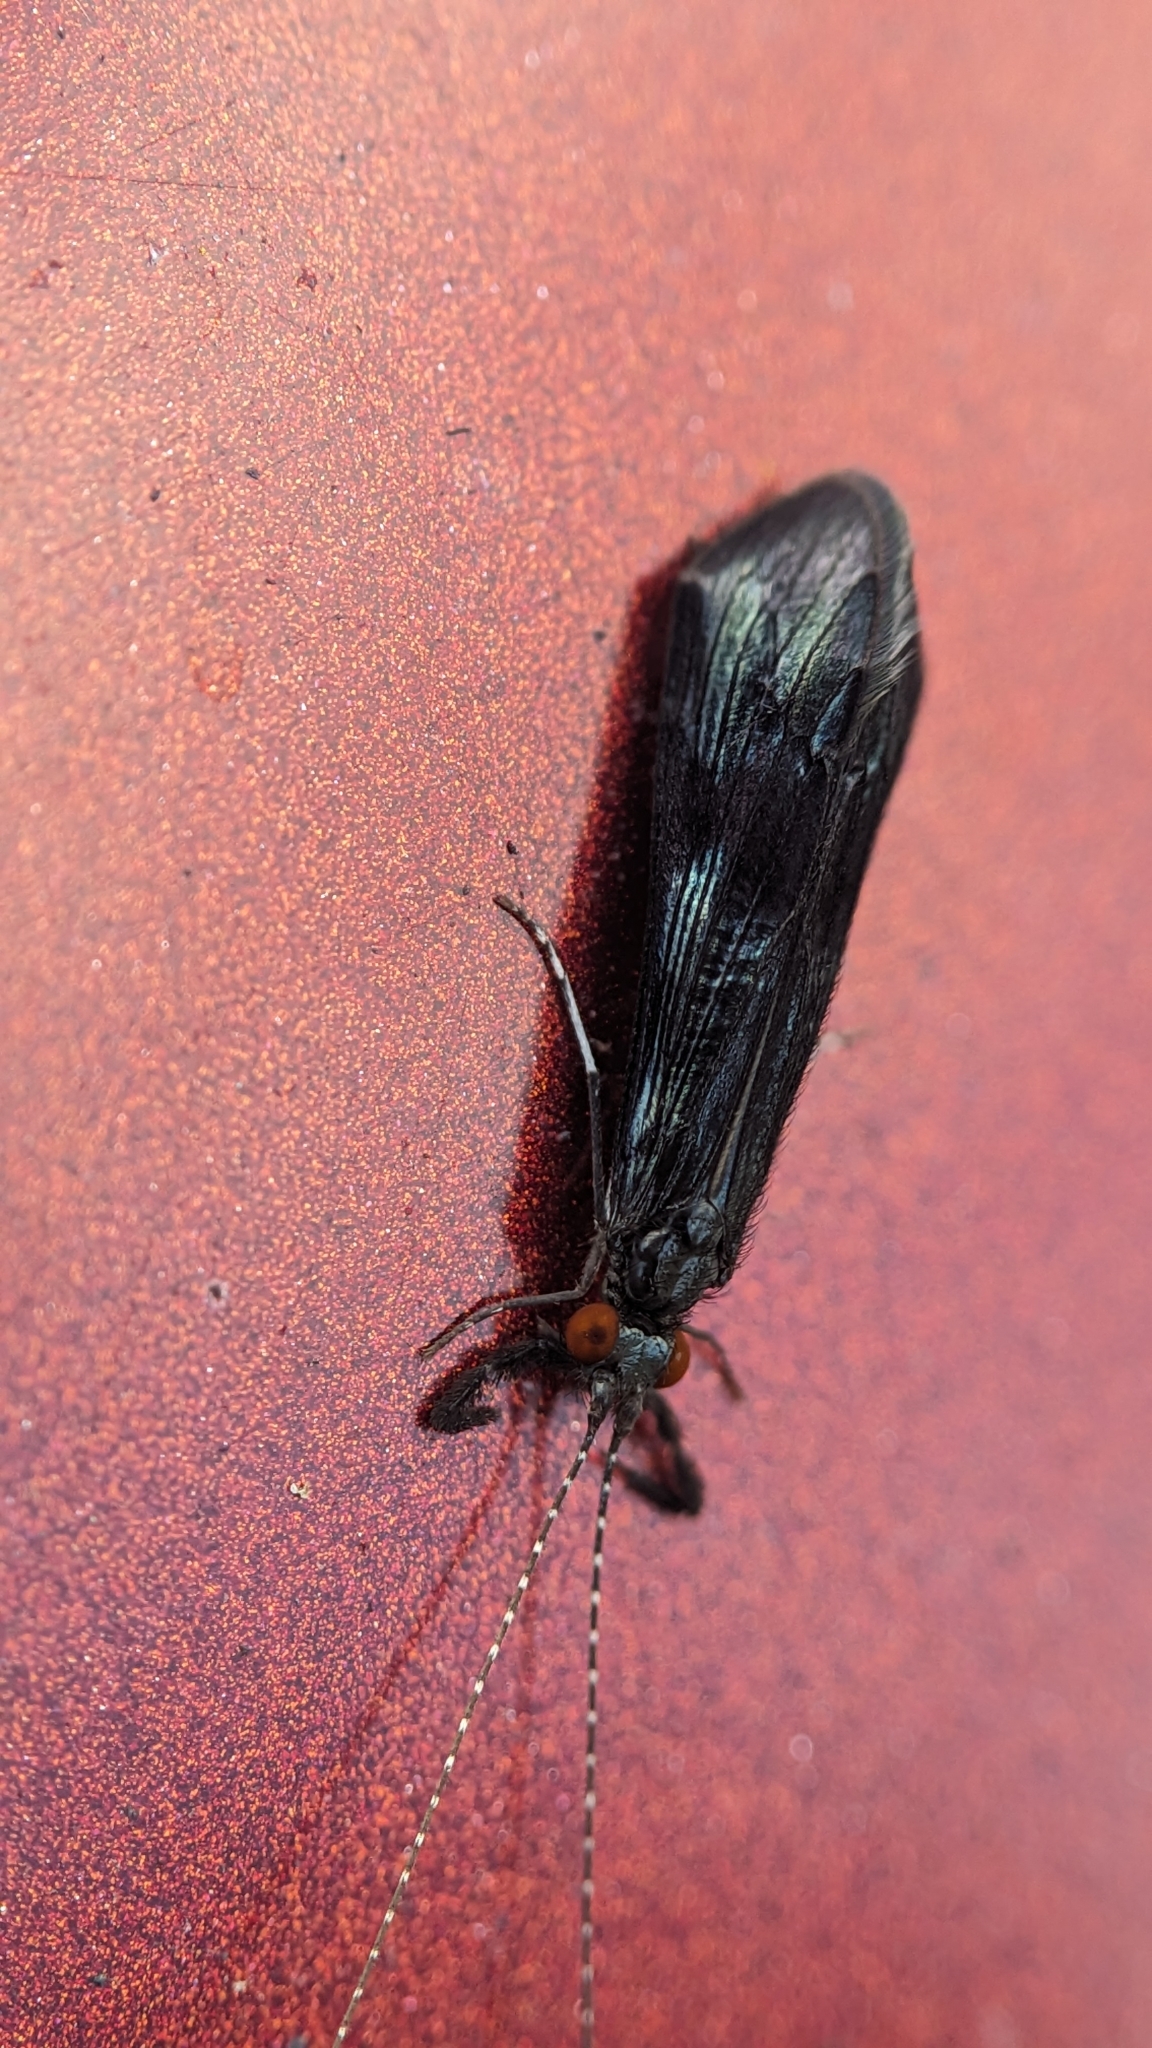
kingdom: Animalia
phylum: Arthropoda
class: Insecta
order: Trichoptera
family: Leptoceridae
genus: Mystacides
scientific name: Mystacides azureus
